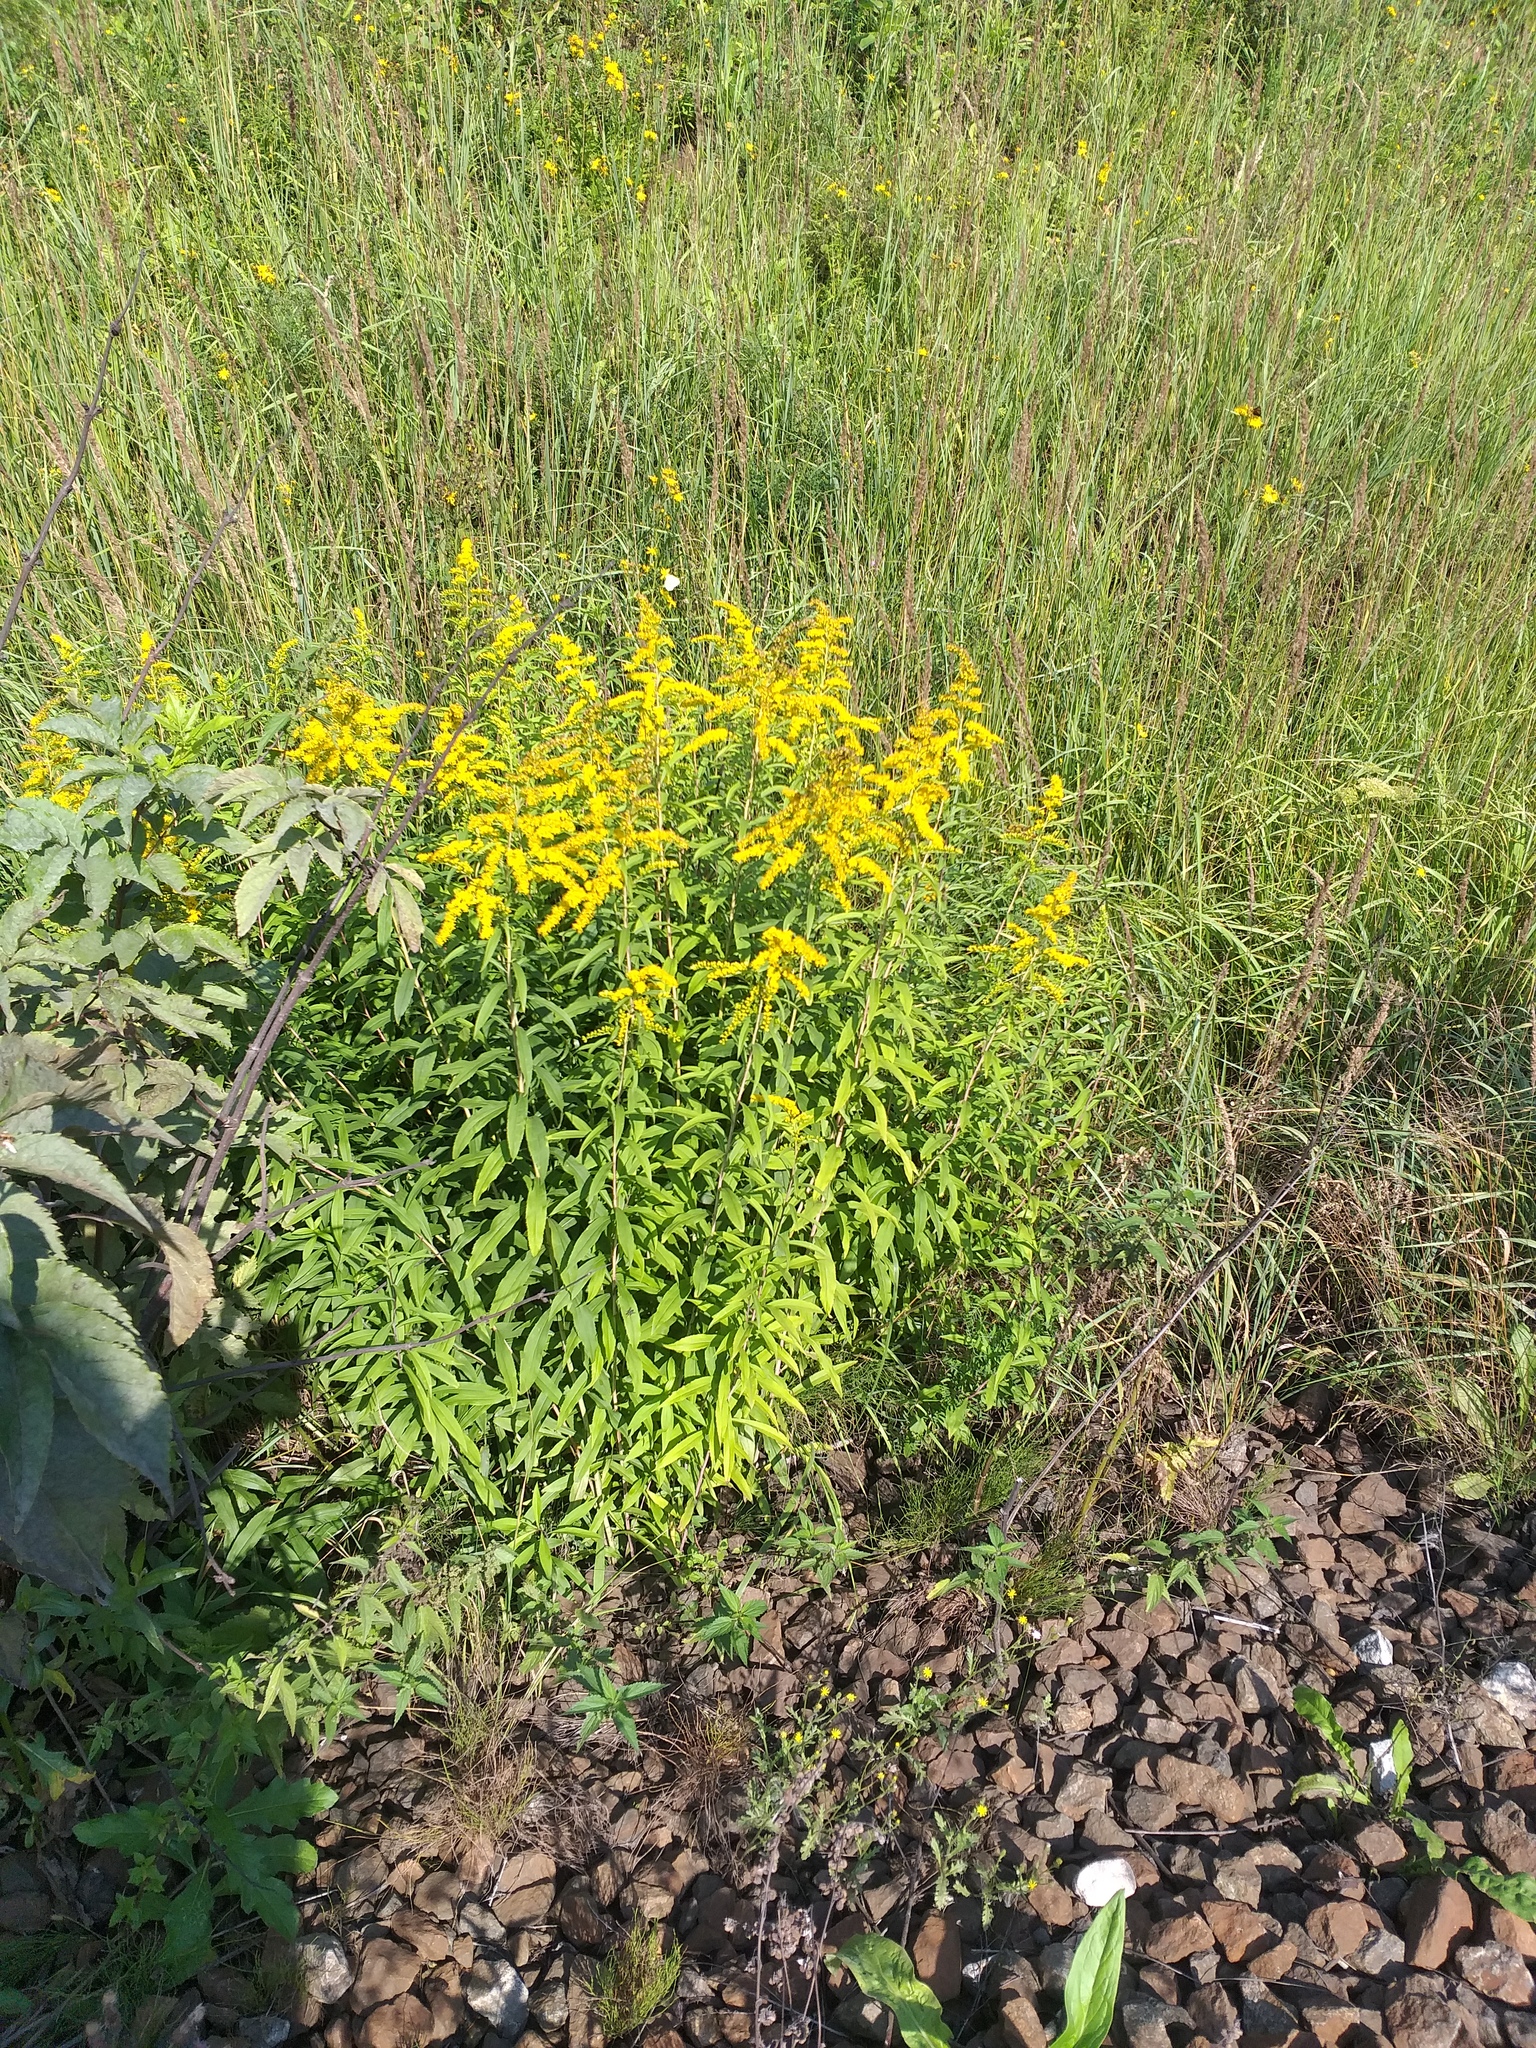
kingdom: Plantae
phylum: Tracheophyta
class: Magnoliopsida
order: Asterales
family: Asteraceae
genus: Solidago
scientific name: Solidago canadensis
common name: Canada goldenrod
